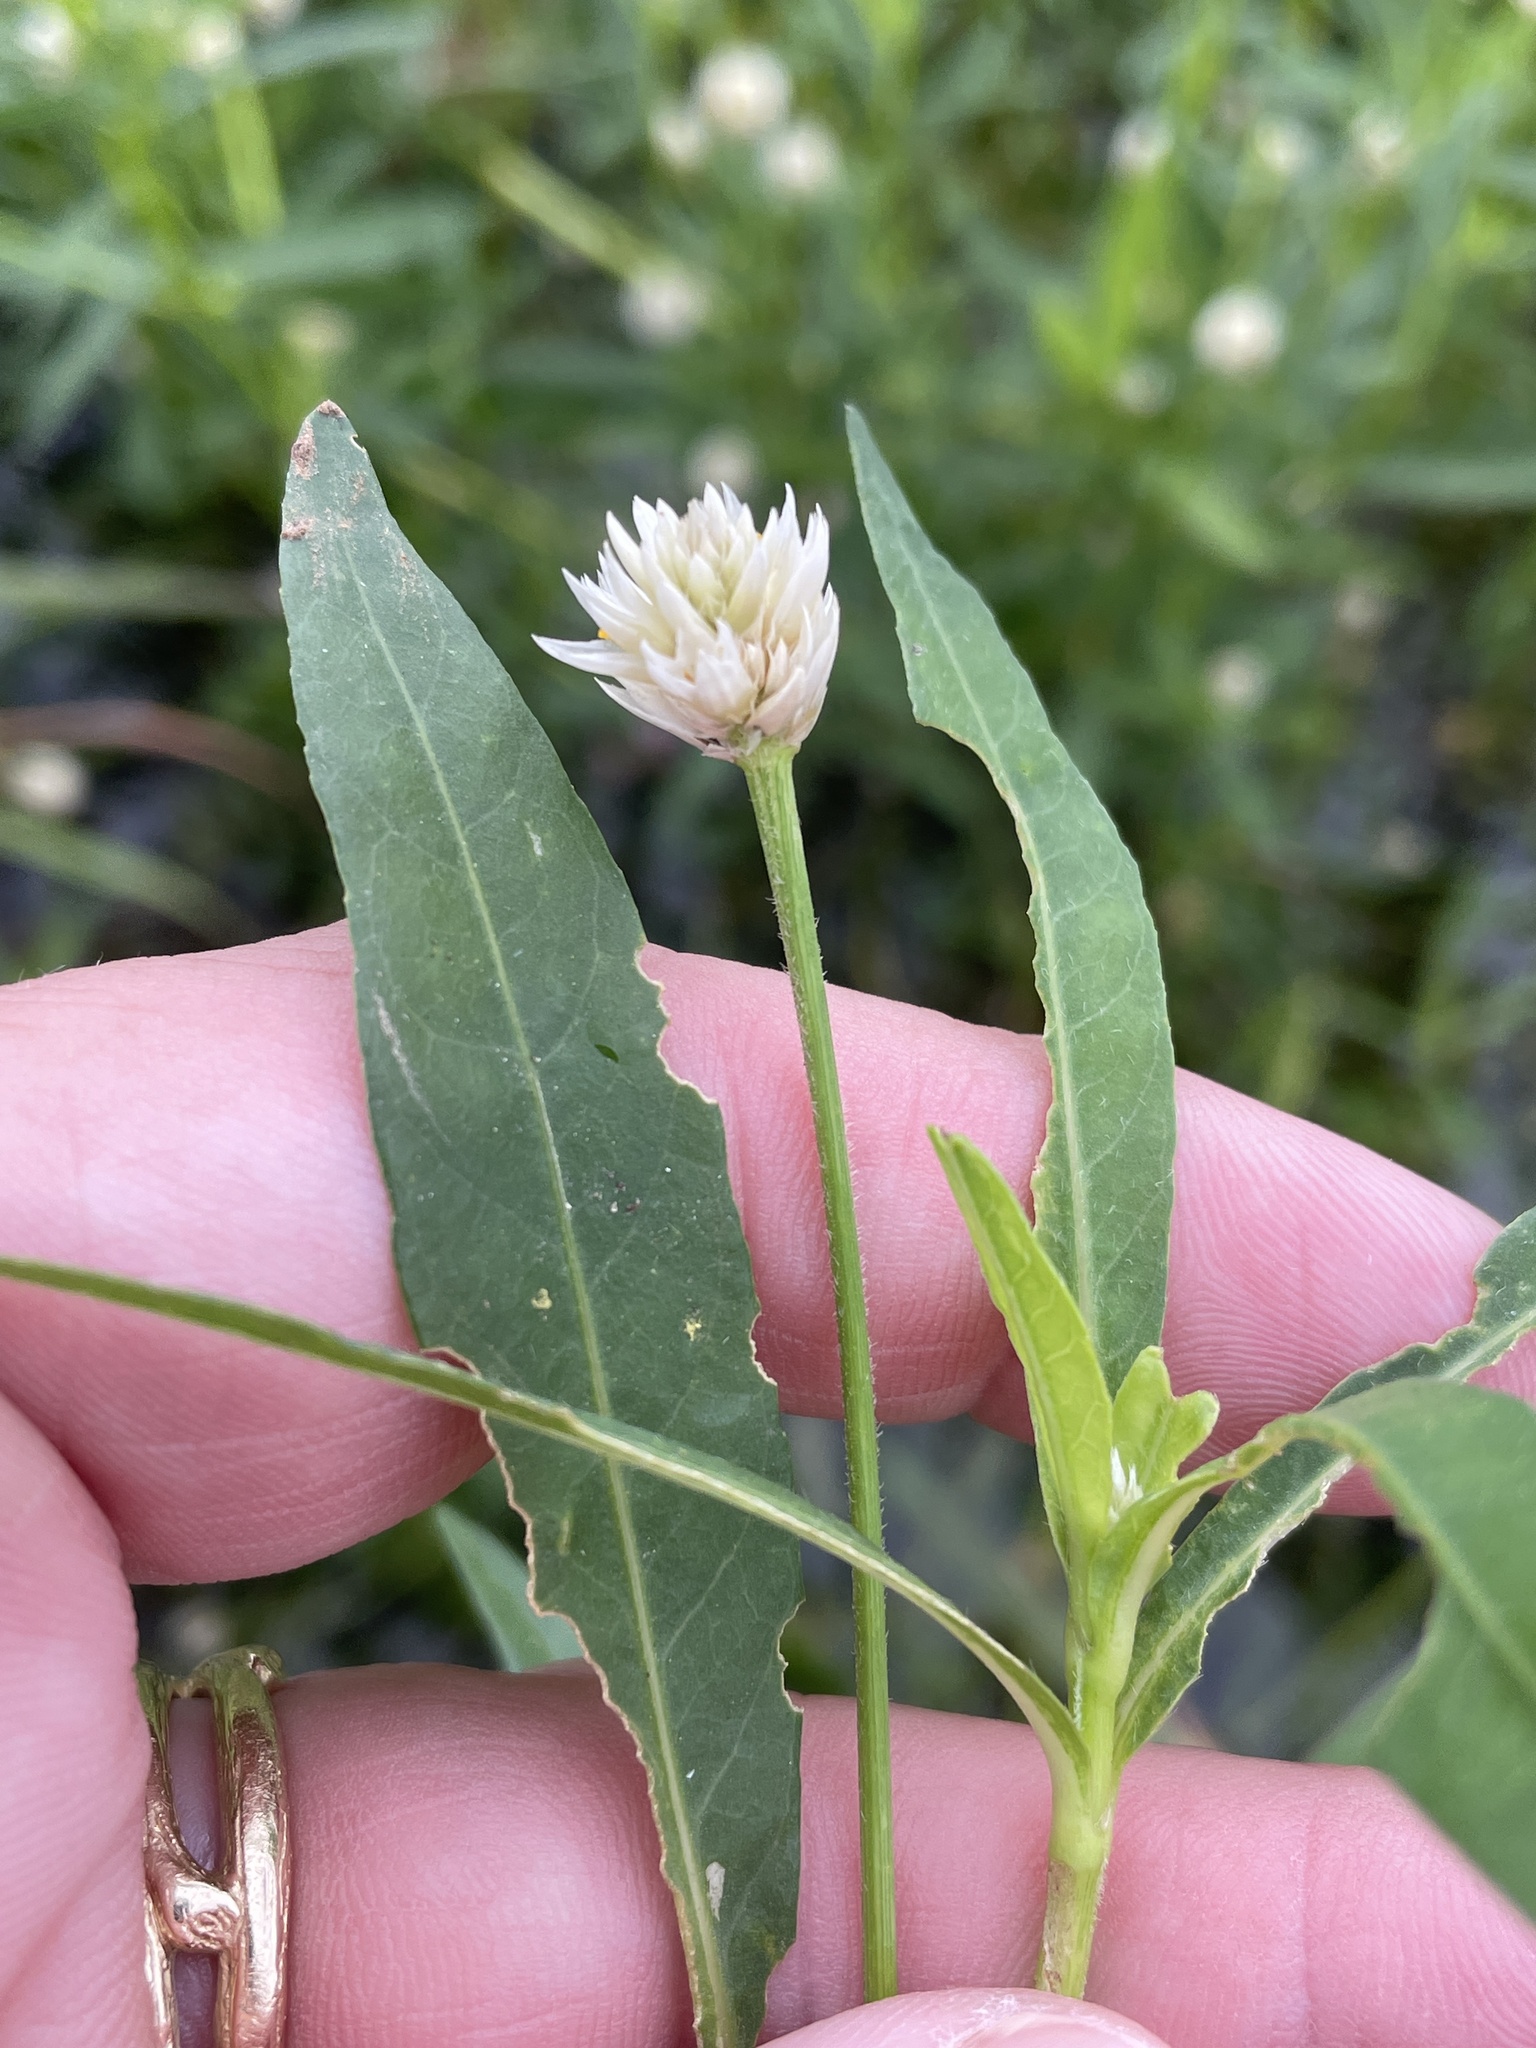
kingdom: Plantae
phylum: Tracheophyta
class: Magnoliopsida
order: Caryophyllales
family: Amaranthaceae
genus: Alternanthera
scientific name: Alternanthera philoxeroides
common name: Alligatorweed
